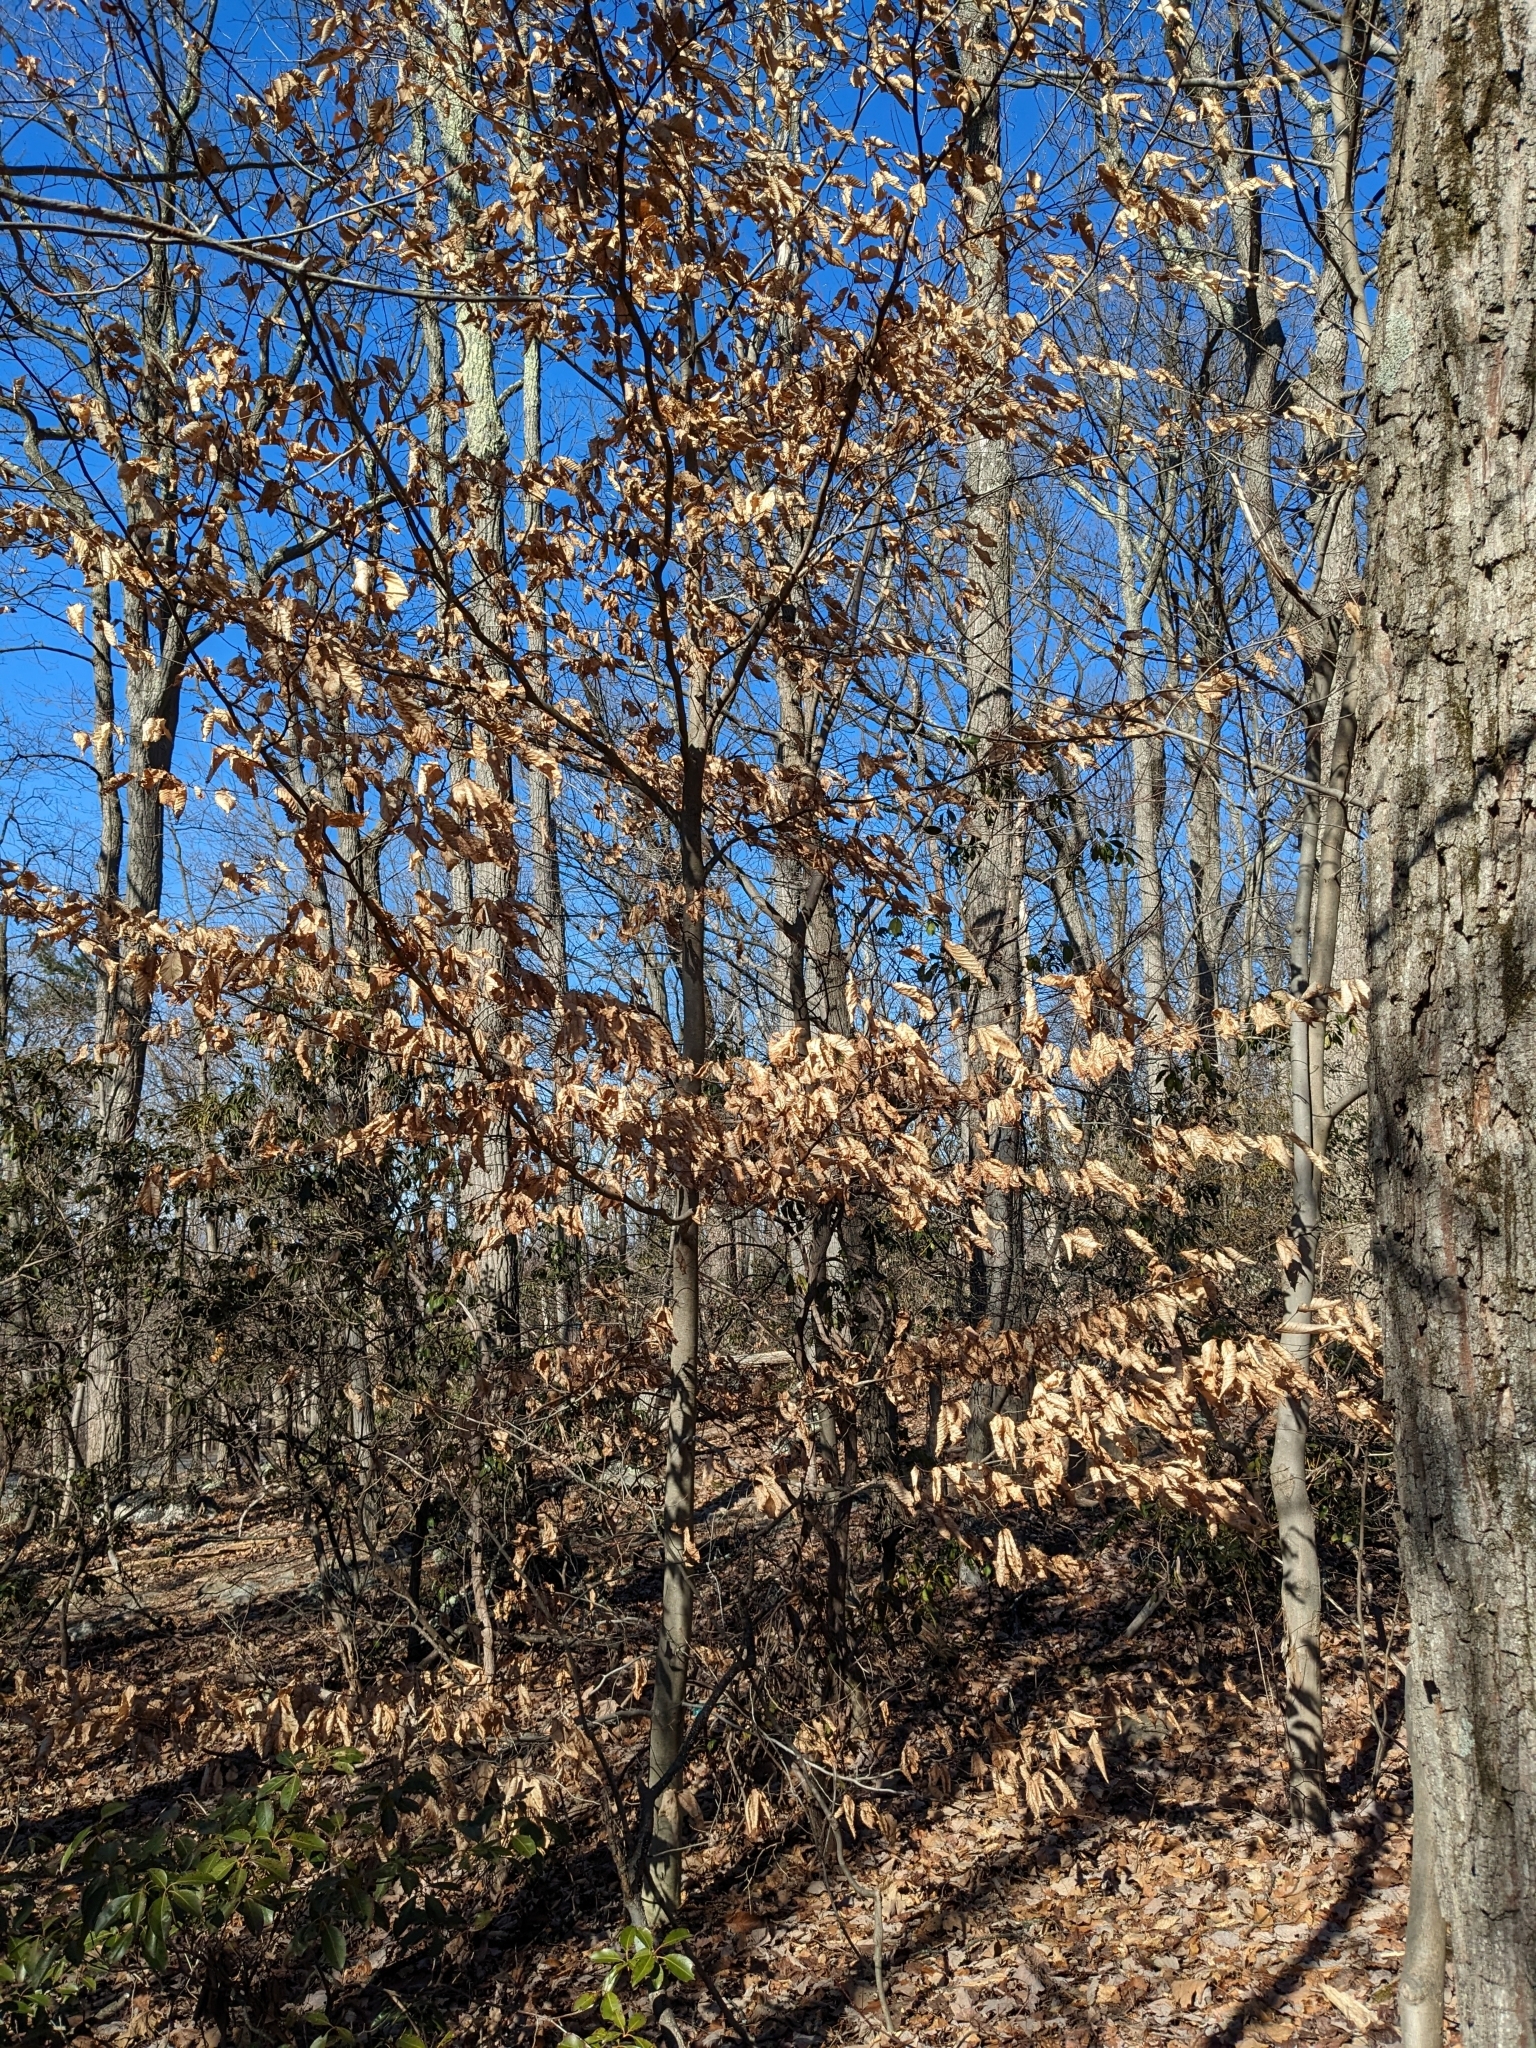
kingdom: Plantae
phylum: Tracheophyta
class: Magnoliopsida
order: Fagales
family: Fagaceae
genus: Fagus
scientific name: Fagus grandifolia
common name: American beech
